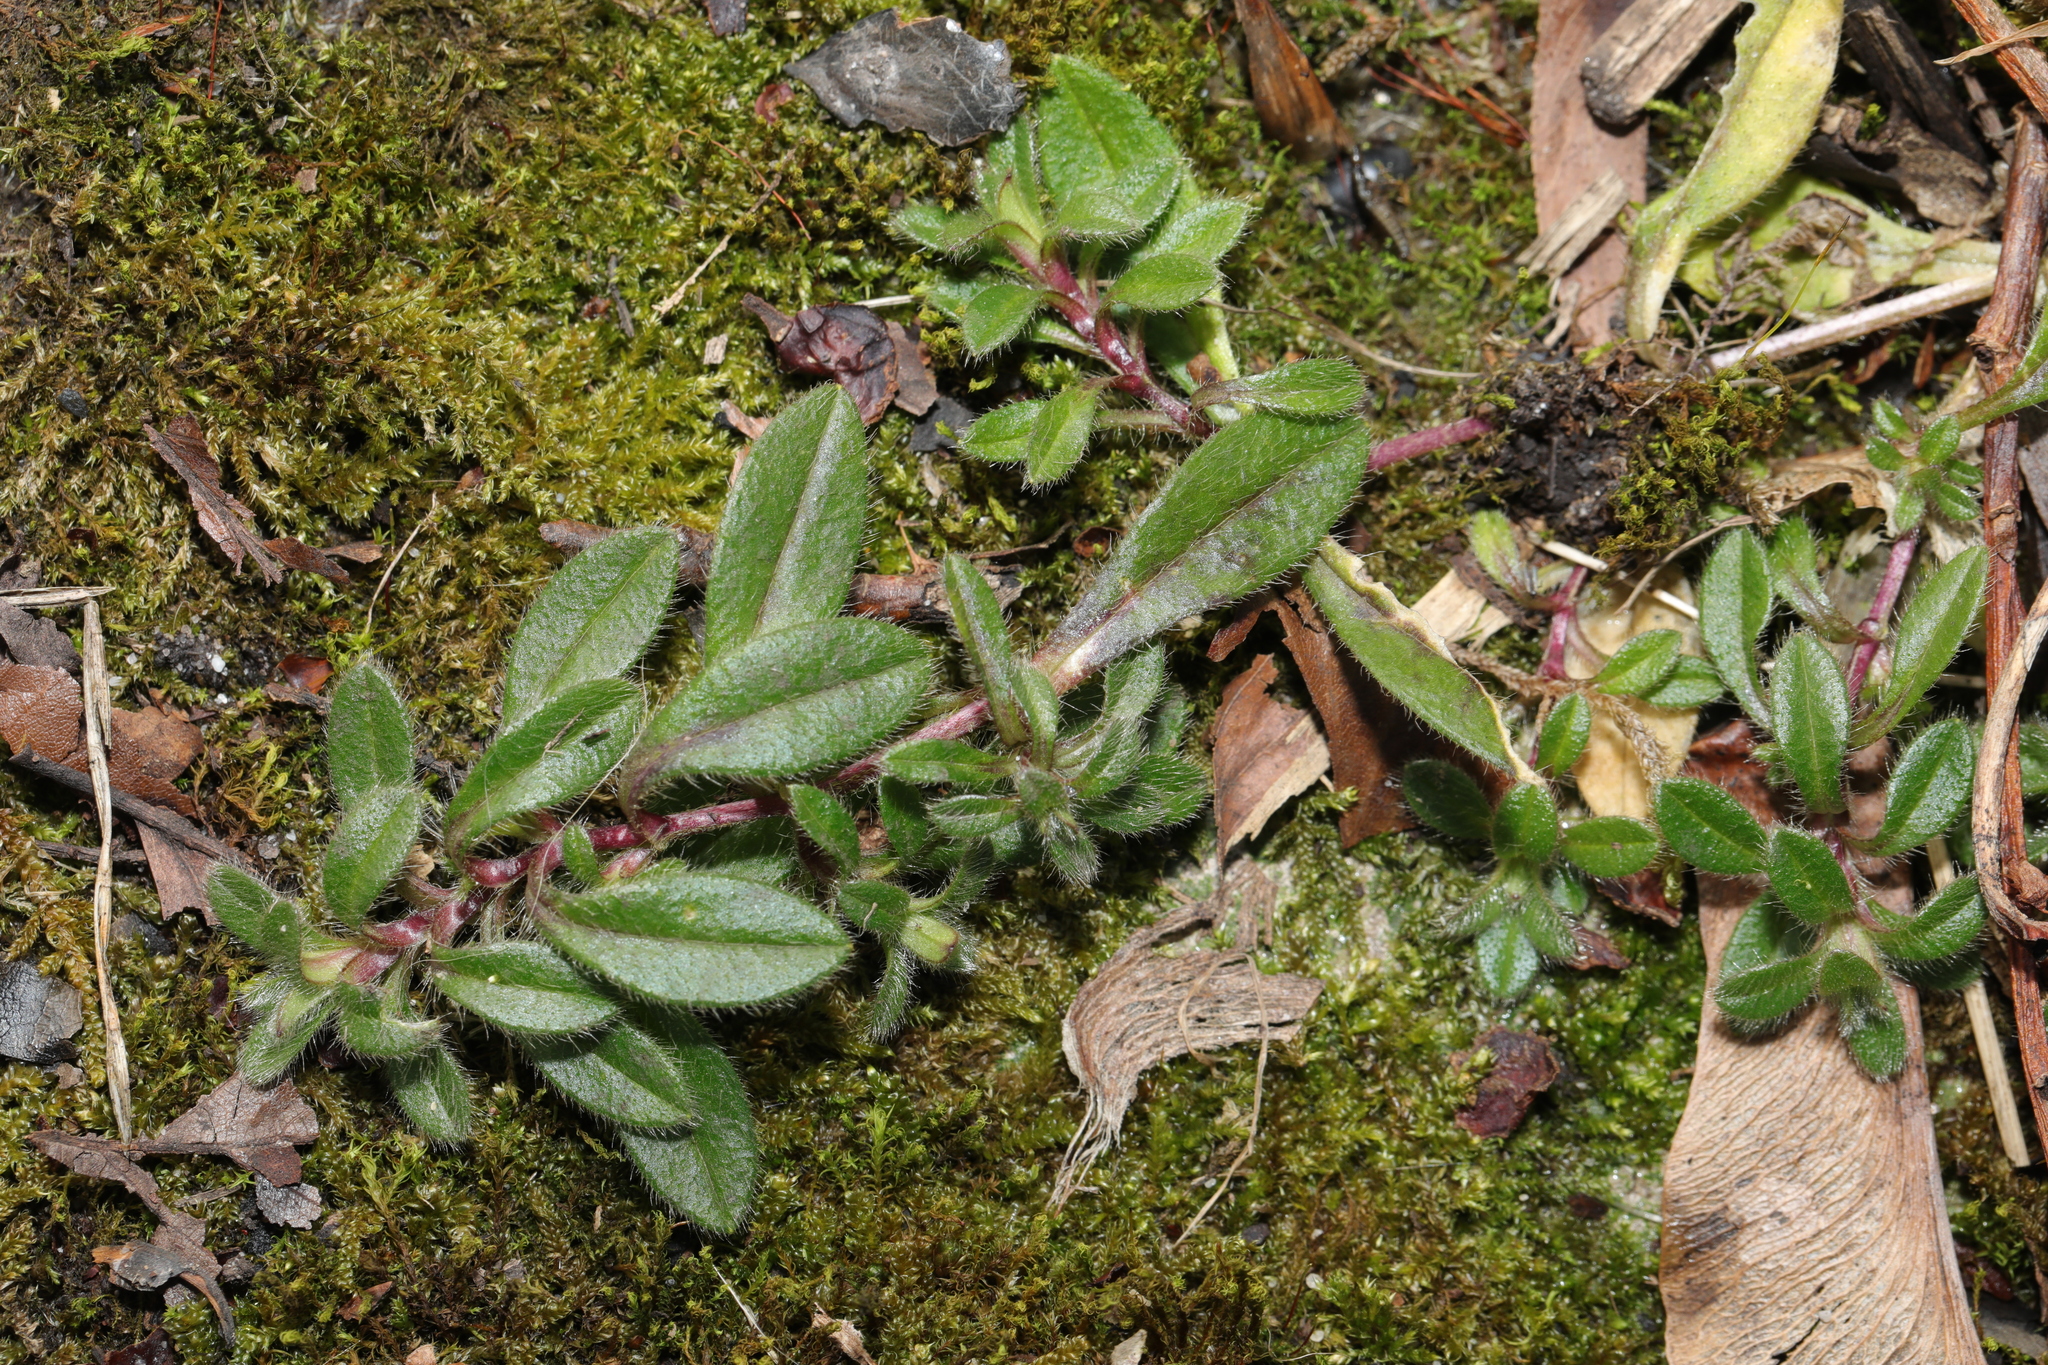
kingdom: Plantae
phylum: Tracheophyta
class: Magnoliopsida
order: Caryophyllales
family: Caryophyllaceae
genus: Cerastium
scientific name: Cerastium fontanum
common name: Common mouse-ear
